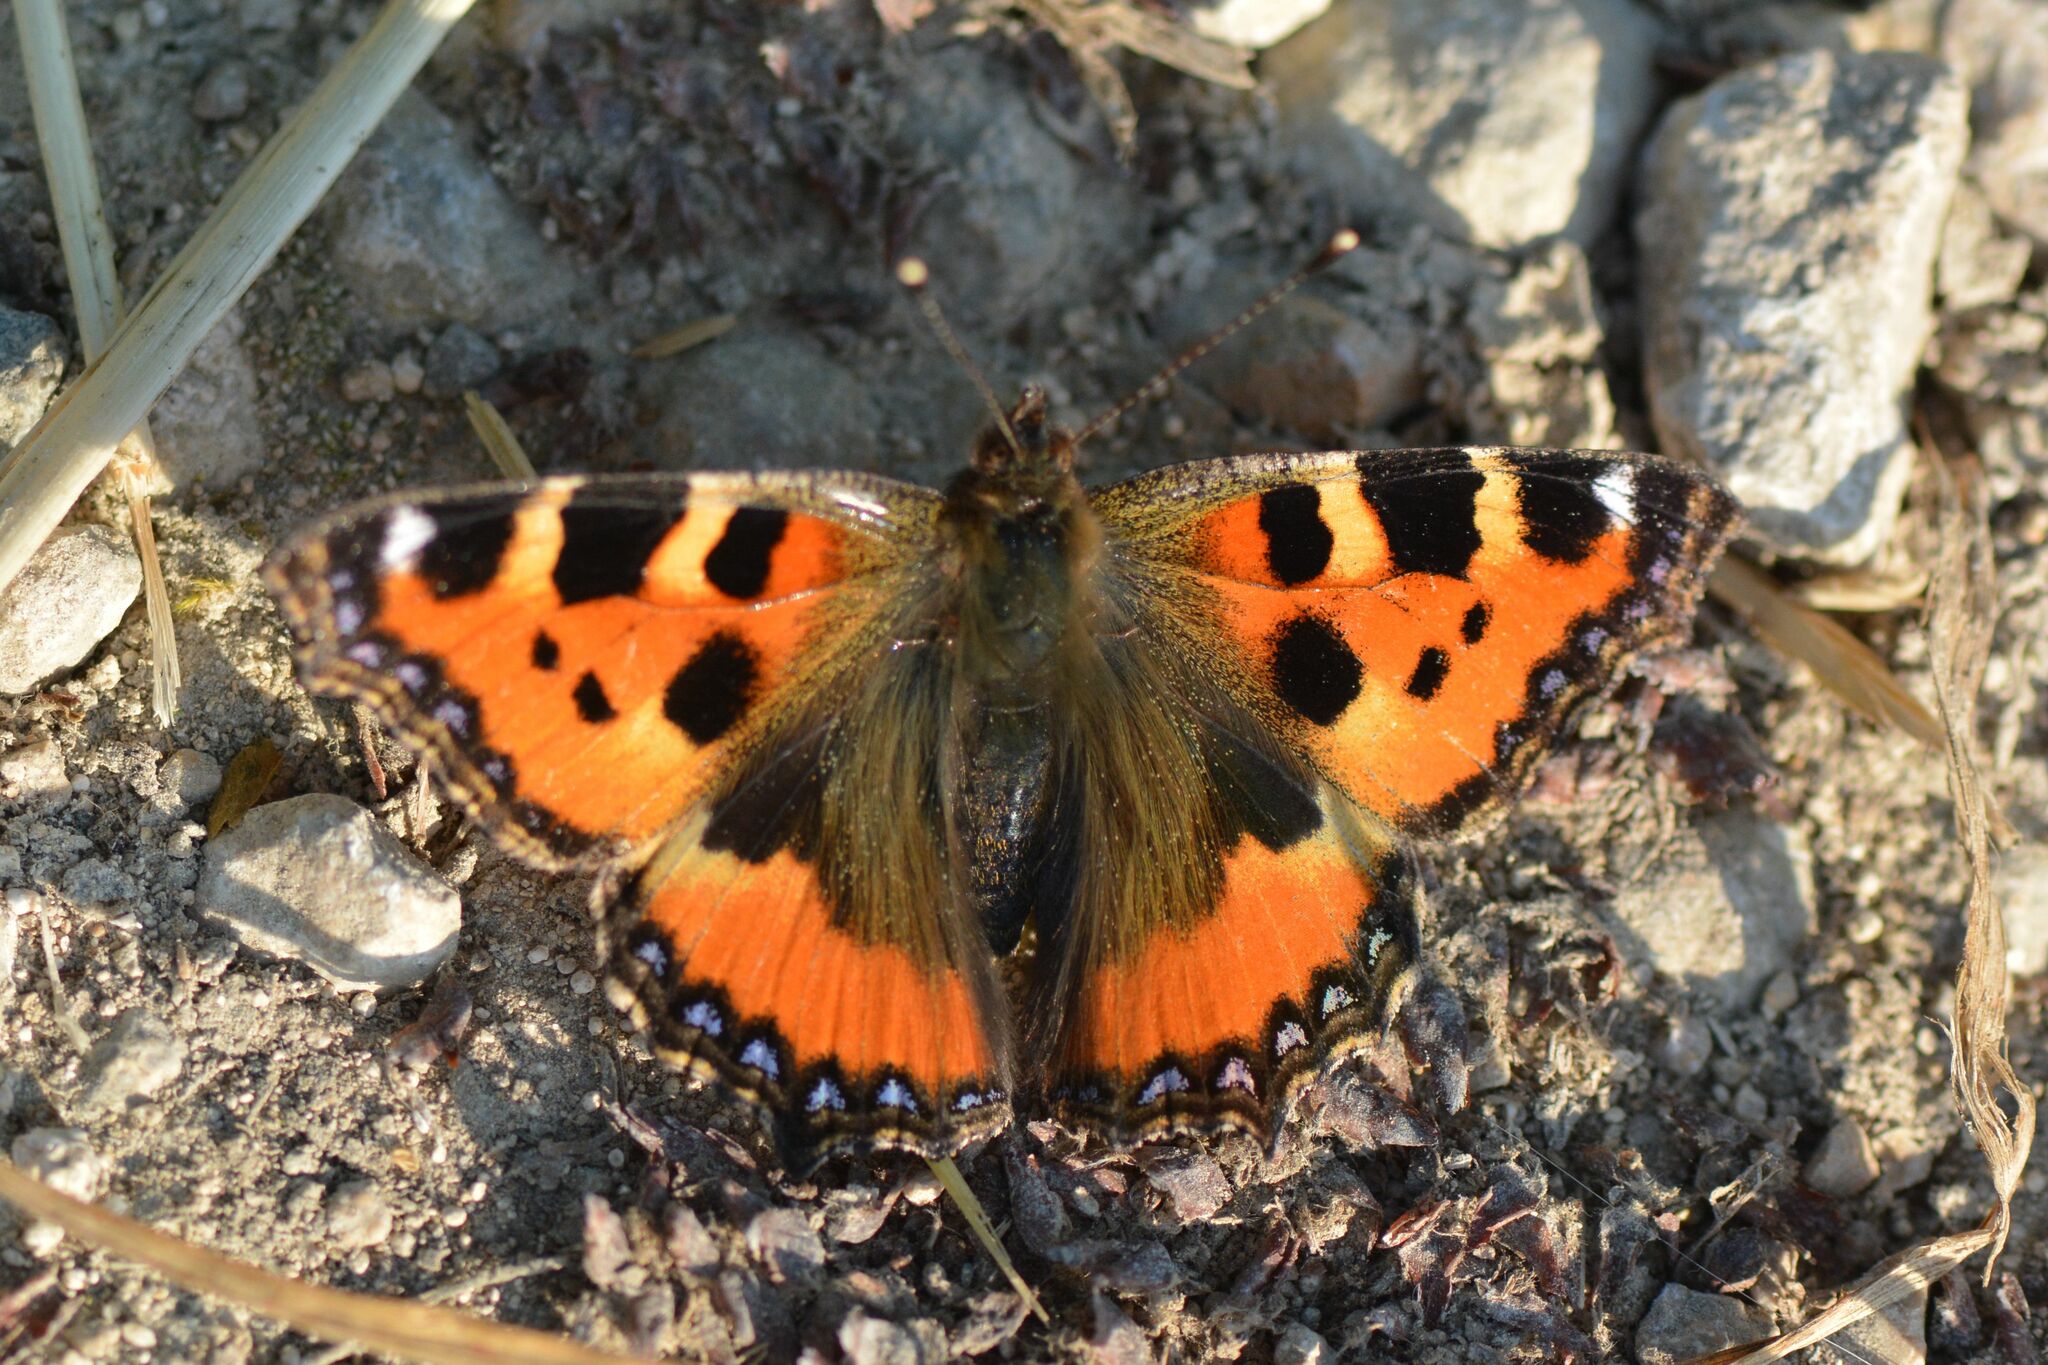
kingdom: Animalia
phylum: Arthropoda
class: Insecta
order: Lepidoptera
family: Nymphalidae
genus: Aglais
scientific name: Aglais urticae
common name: Small tortoiseshell
